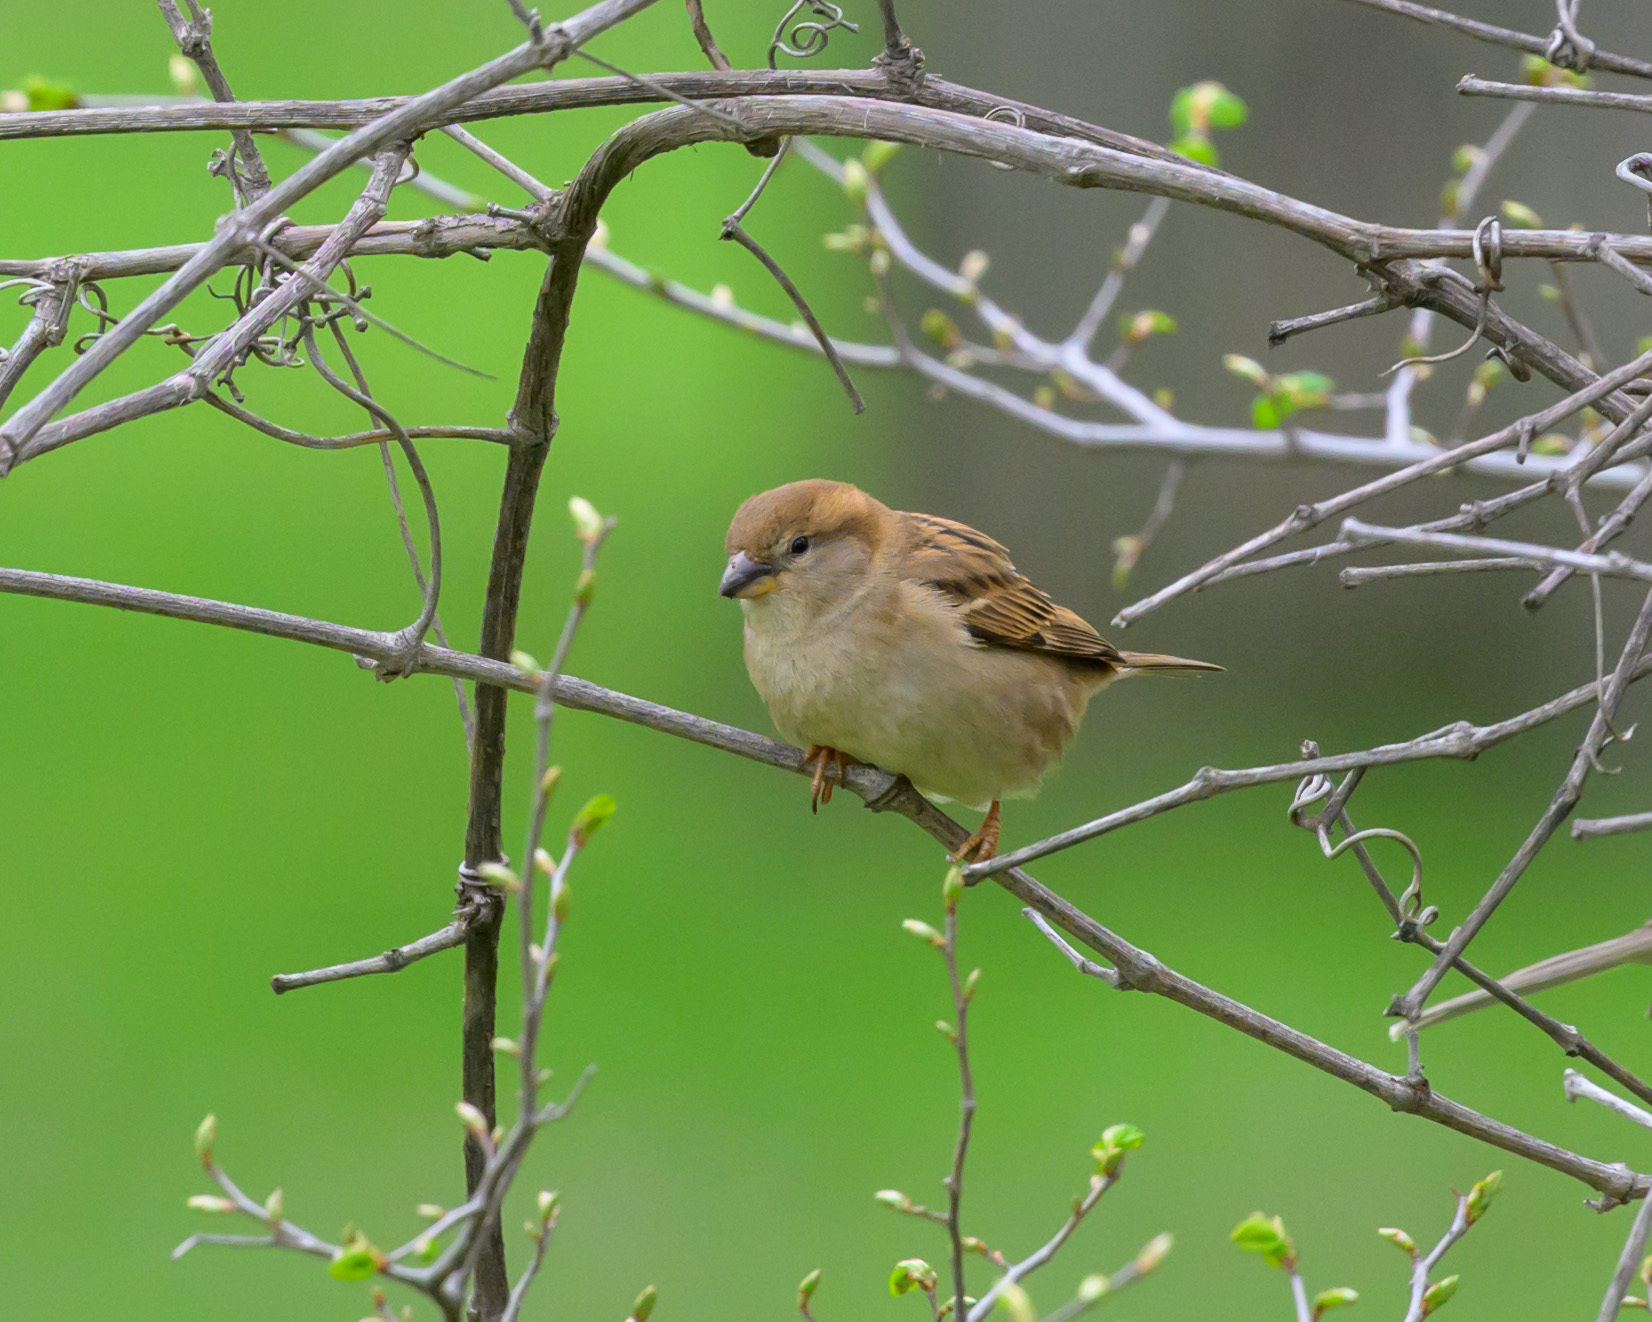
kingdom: Animalia
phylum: Chordata
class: Aves
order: Passeriformes
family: Passeridae
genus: Passer
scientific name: Passer domesticus
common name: House sparrow
